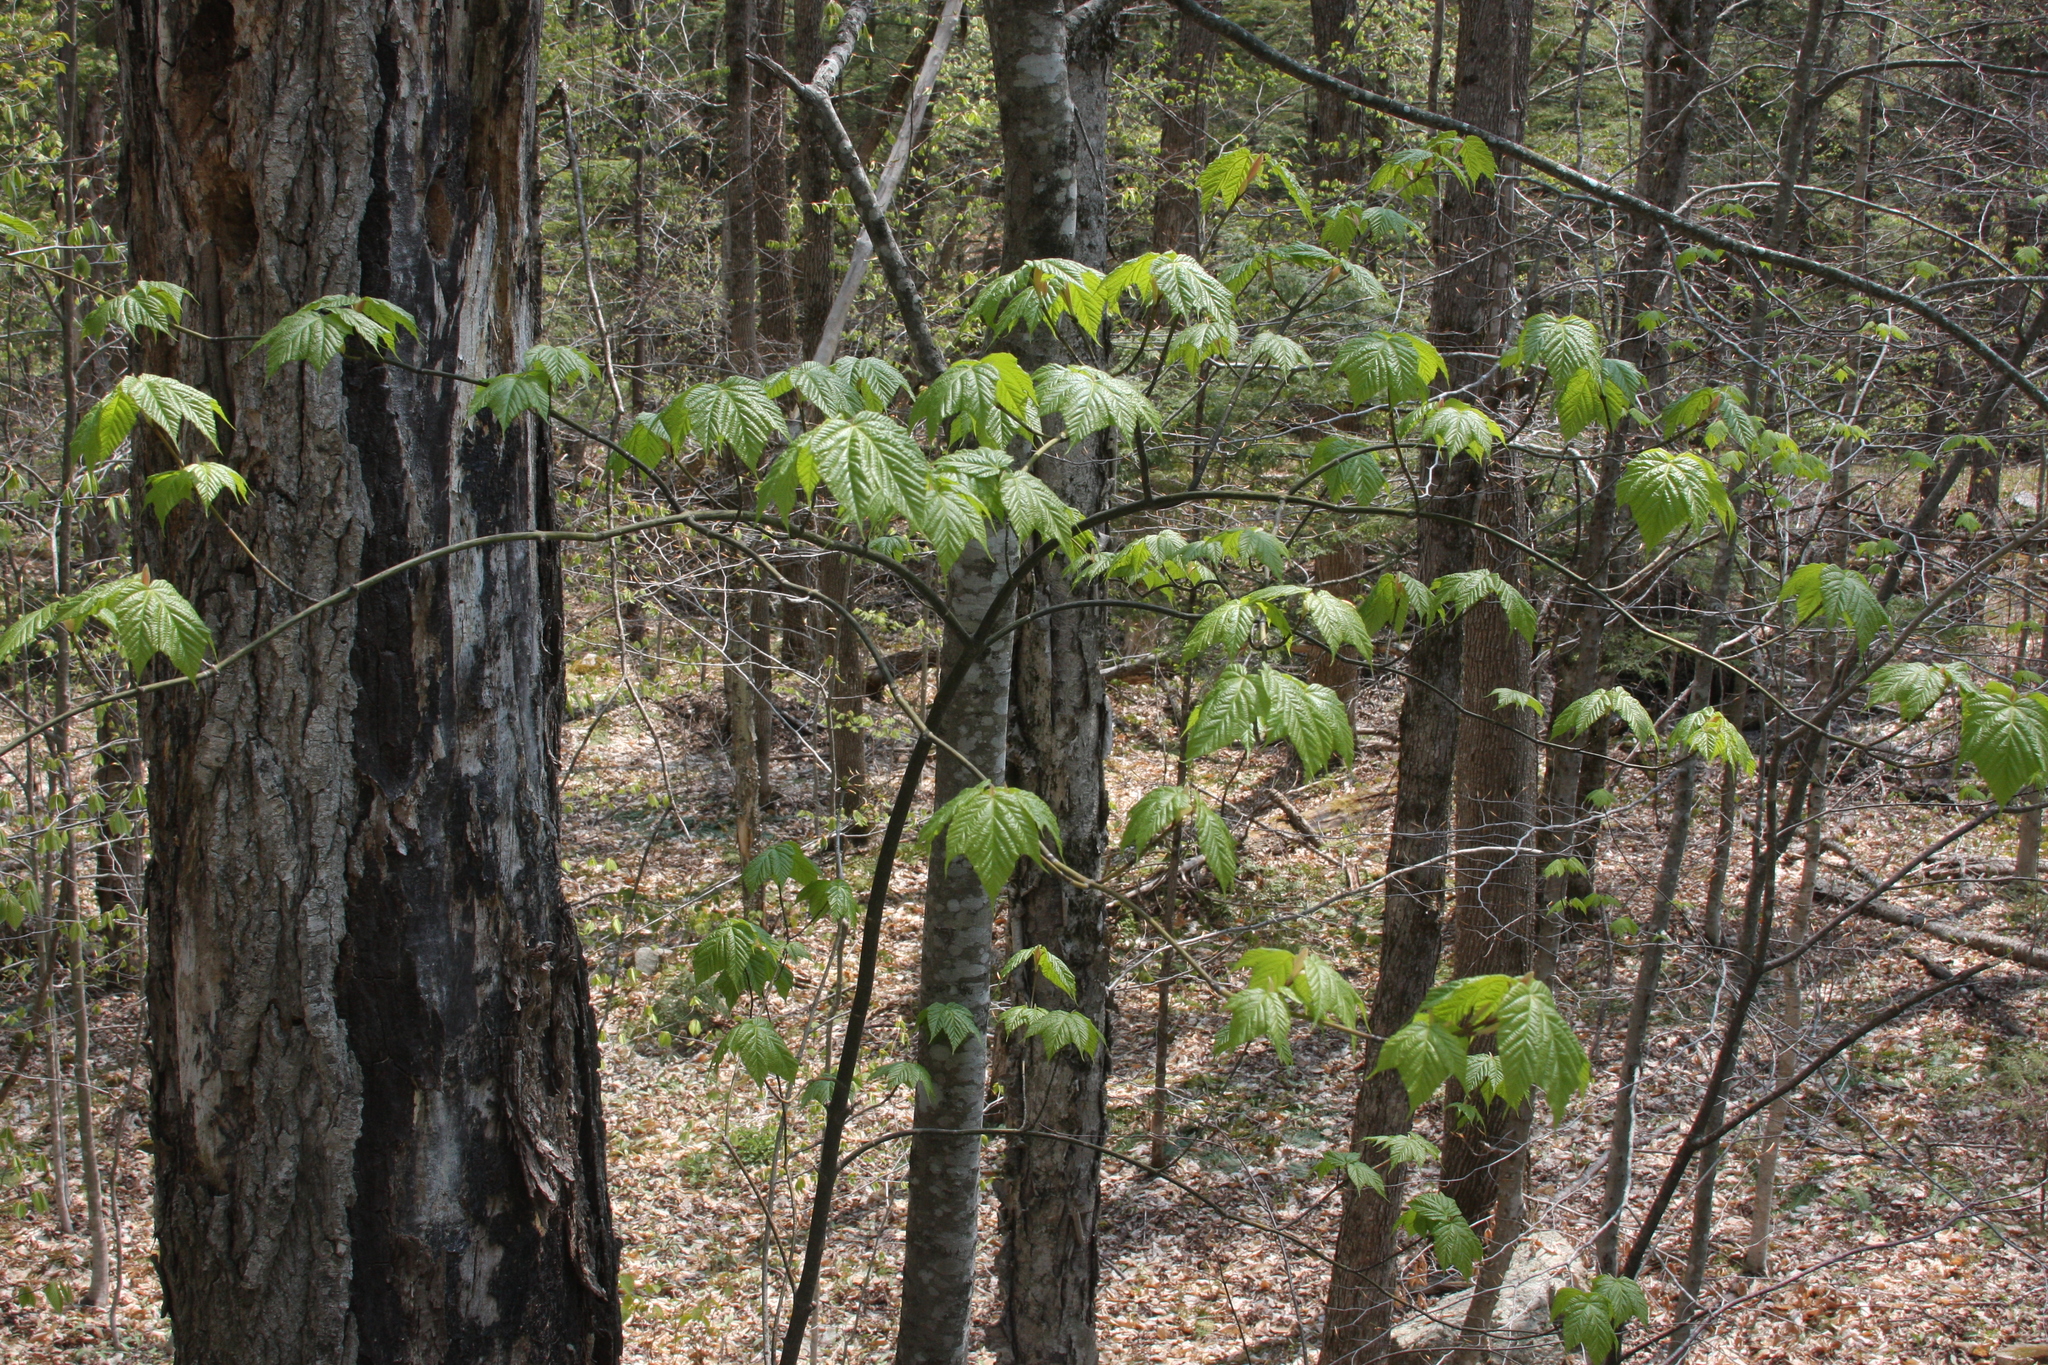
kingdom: Plantae
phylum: Tracheophyta
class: Magnoliopsida
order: Sapindales
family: Sapindaceae
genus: Acer
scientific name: Acer pensylvanicum
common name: Moosewood
